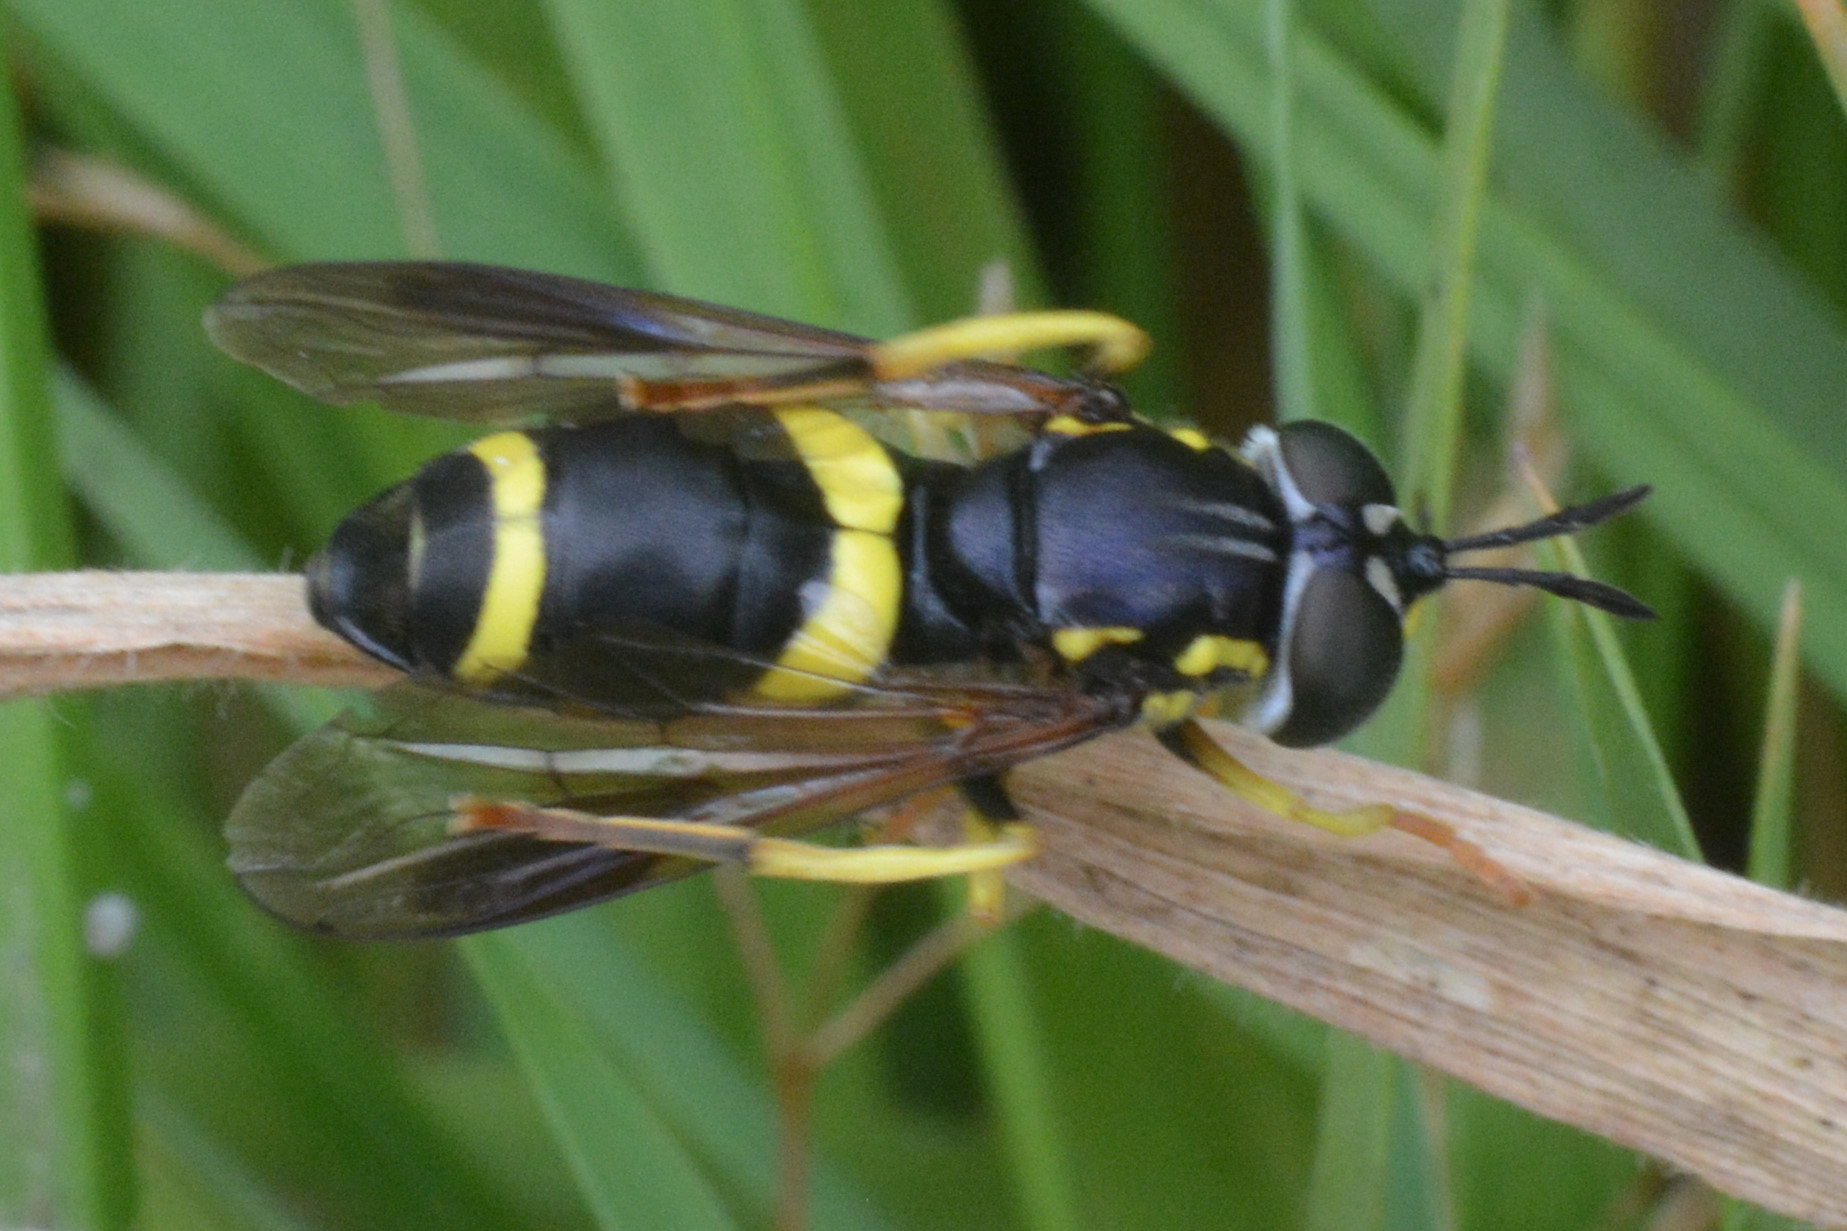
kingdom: Animalia
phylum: Arthropoda
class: Insecta
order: Diptera
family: Syrphidae
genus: Chrysotoxum
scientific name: Chrysotoxum bicincta
